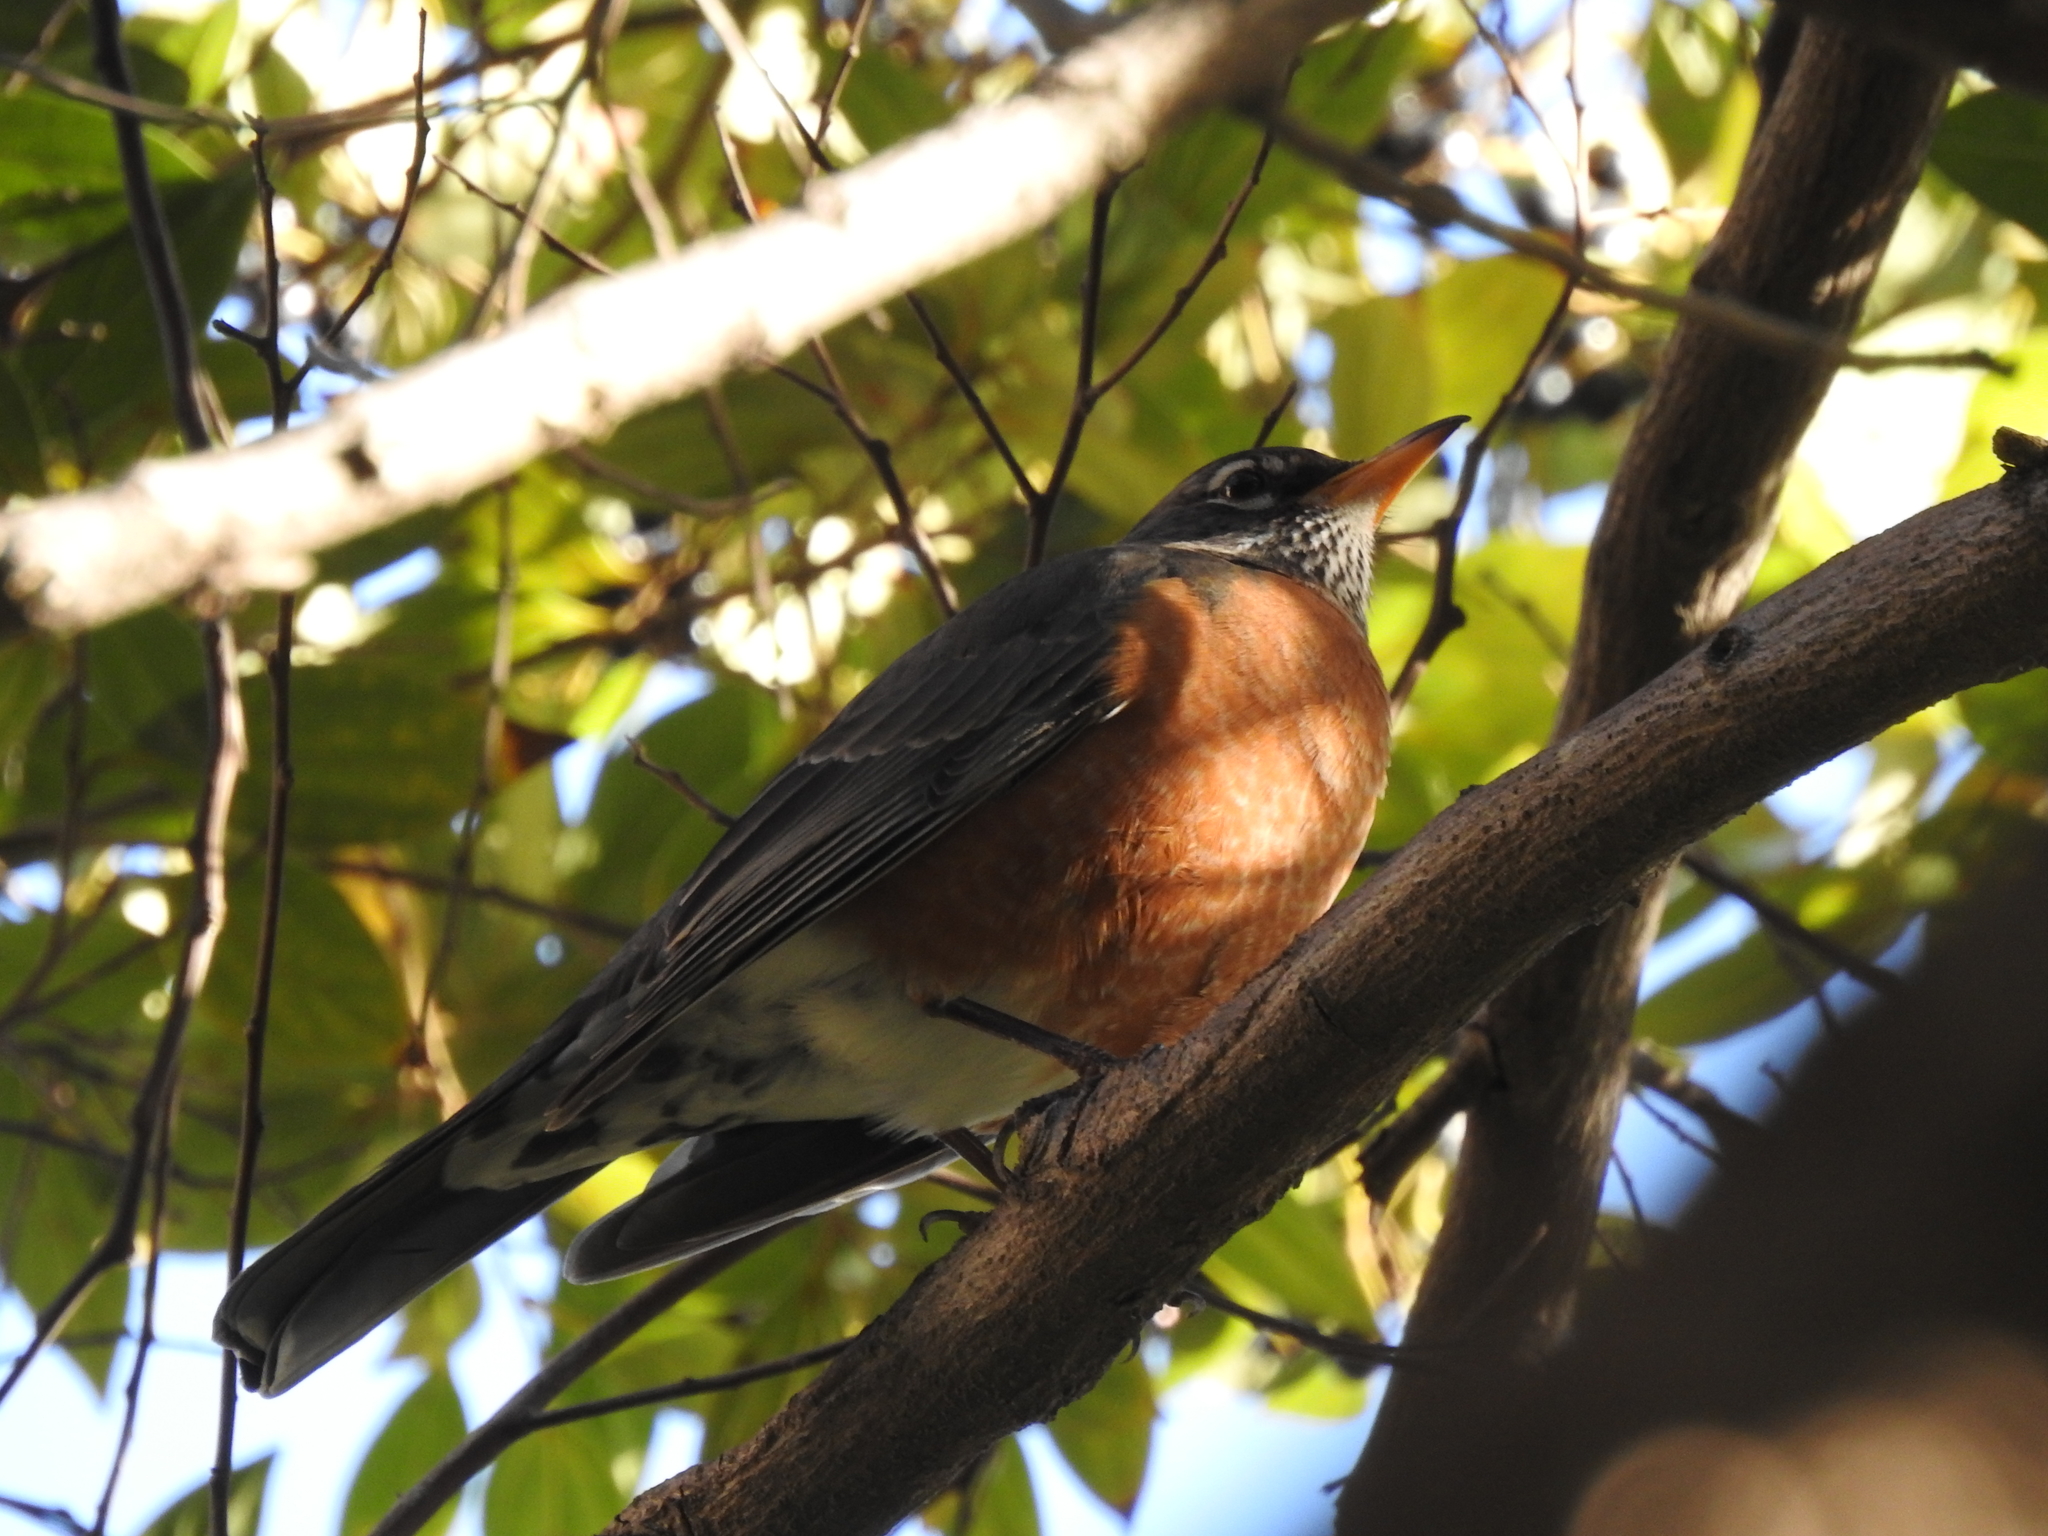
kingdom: Animalia
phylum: Chordata
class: Aves
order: Passeriformes
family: Turdidae
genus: Turdus
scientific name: Turdus migratorius
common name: American robin
